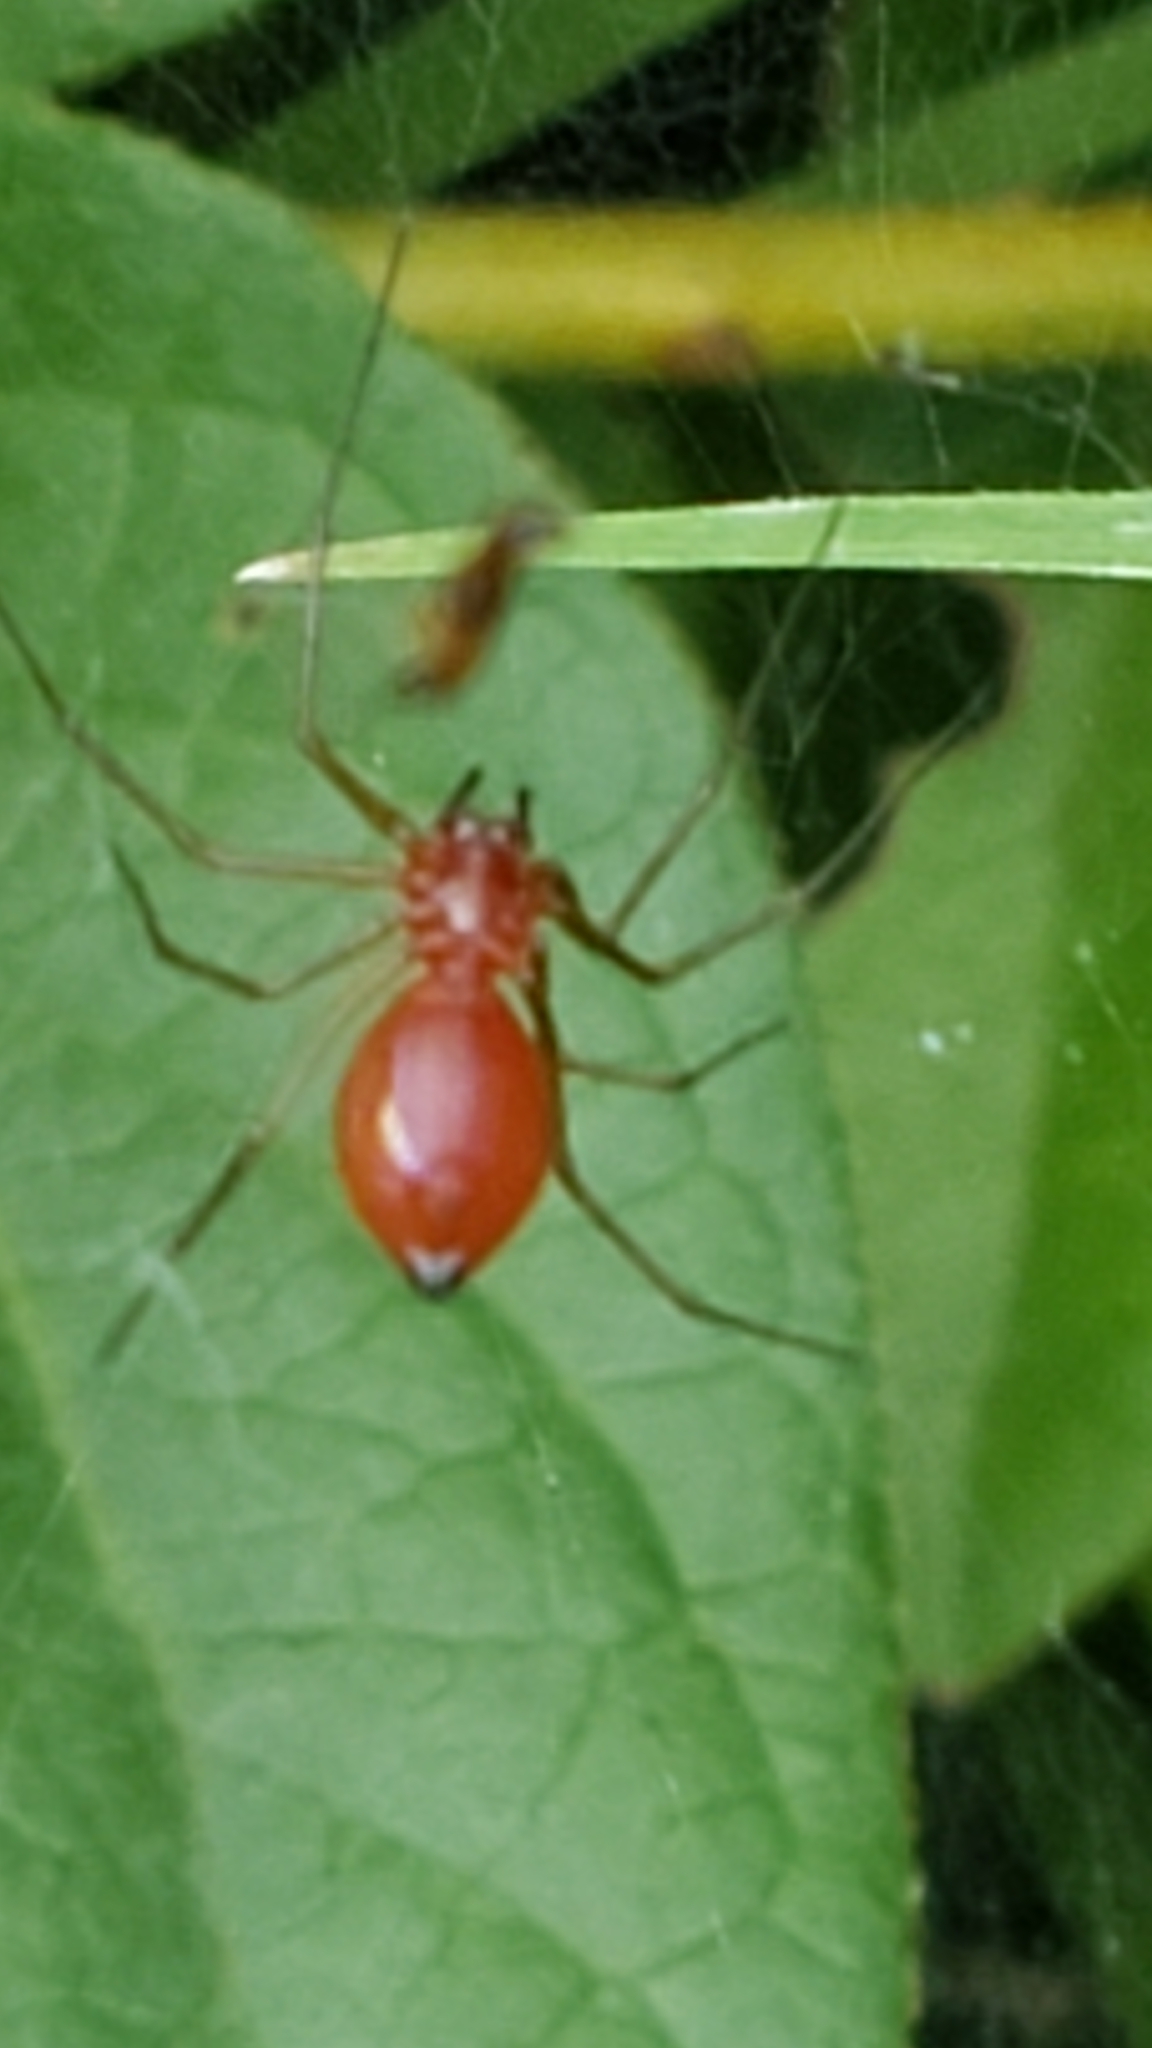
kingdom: Animalia
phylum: Arthropoda
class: Arachnida
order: Araneae
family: Linyphiidae
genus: Florinda
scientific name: Florinda coccinea
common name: Black-tailed red sheetweaver
